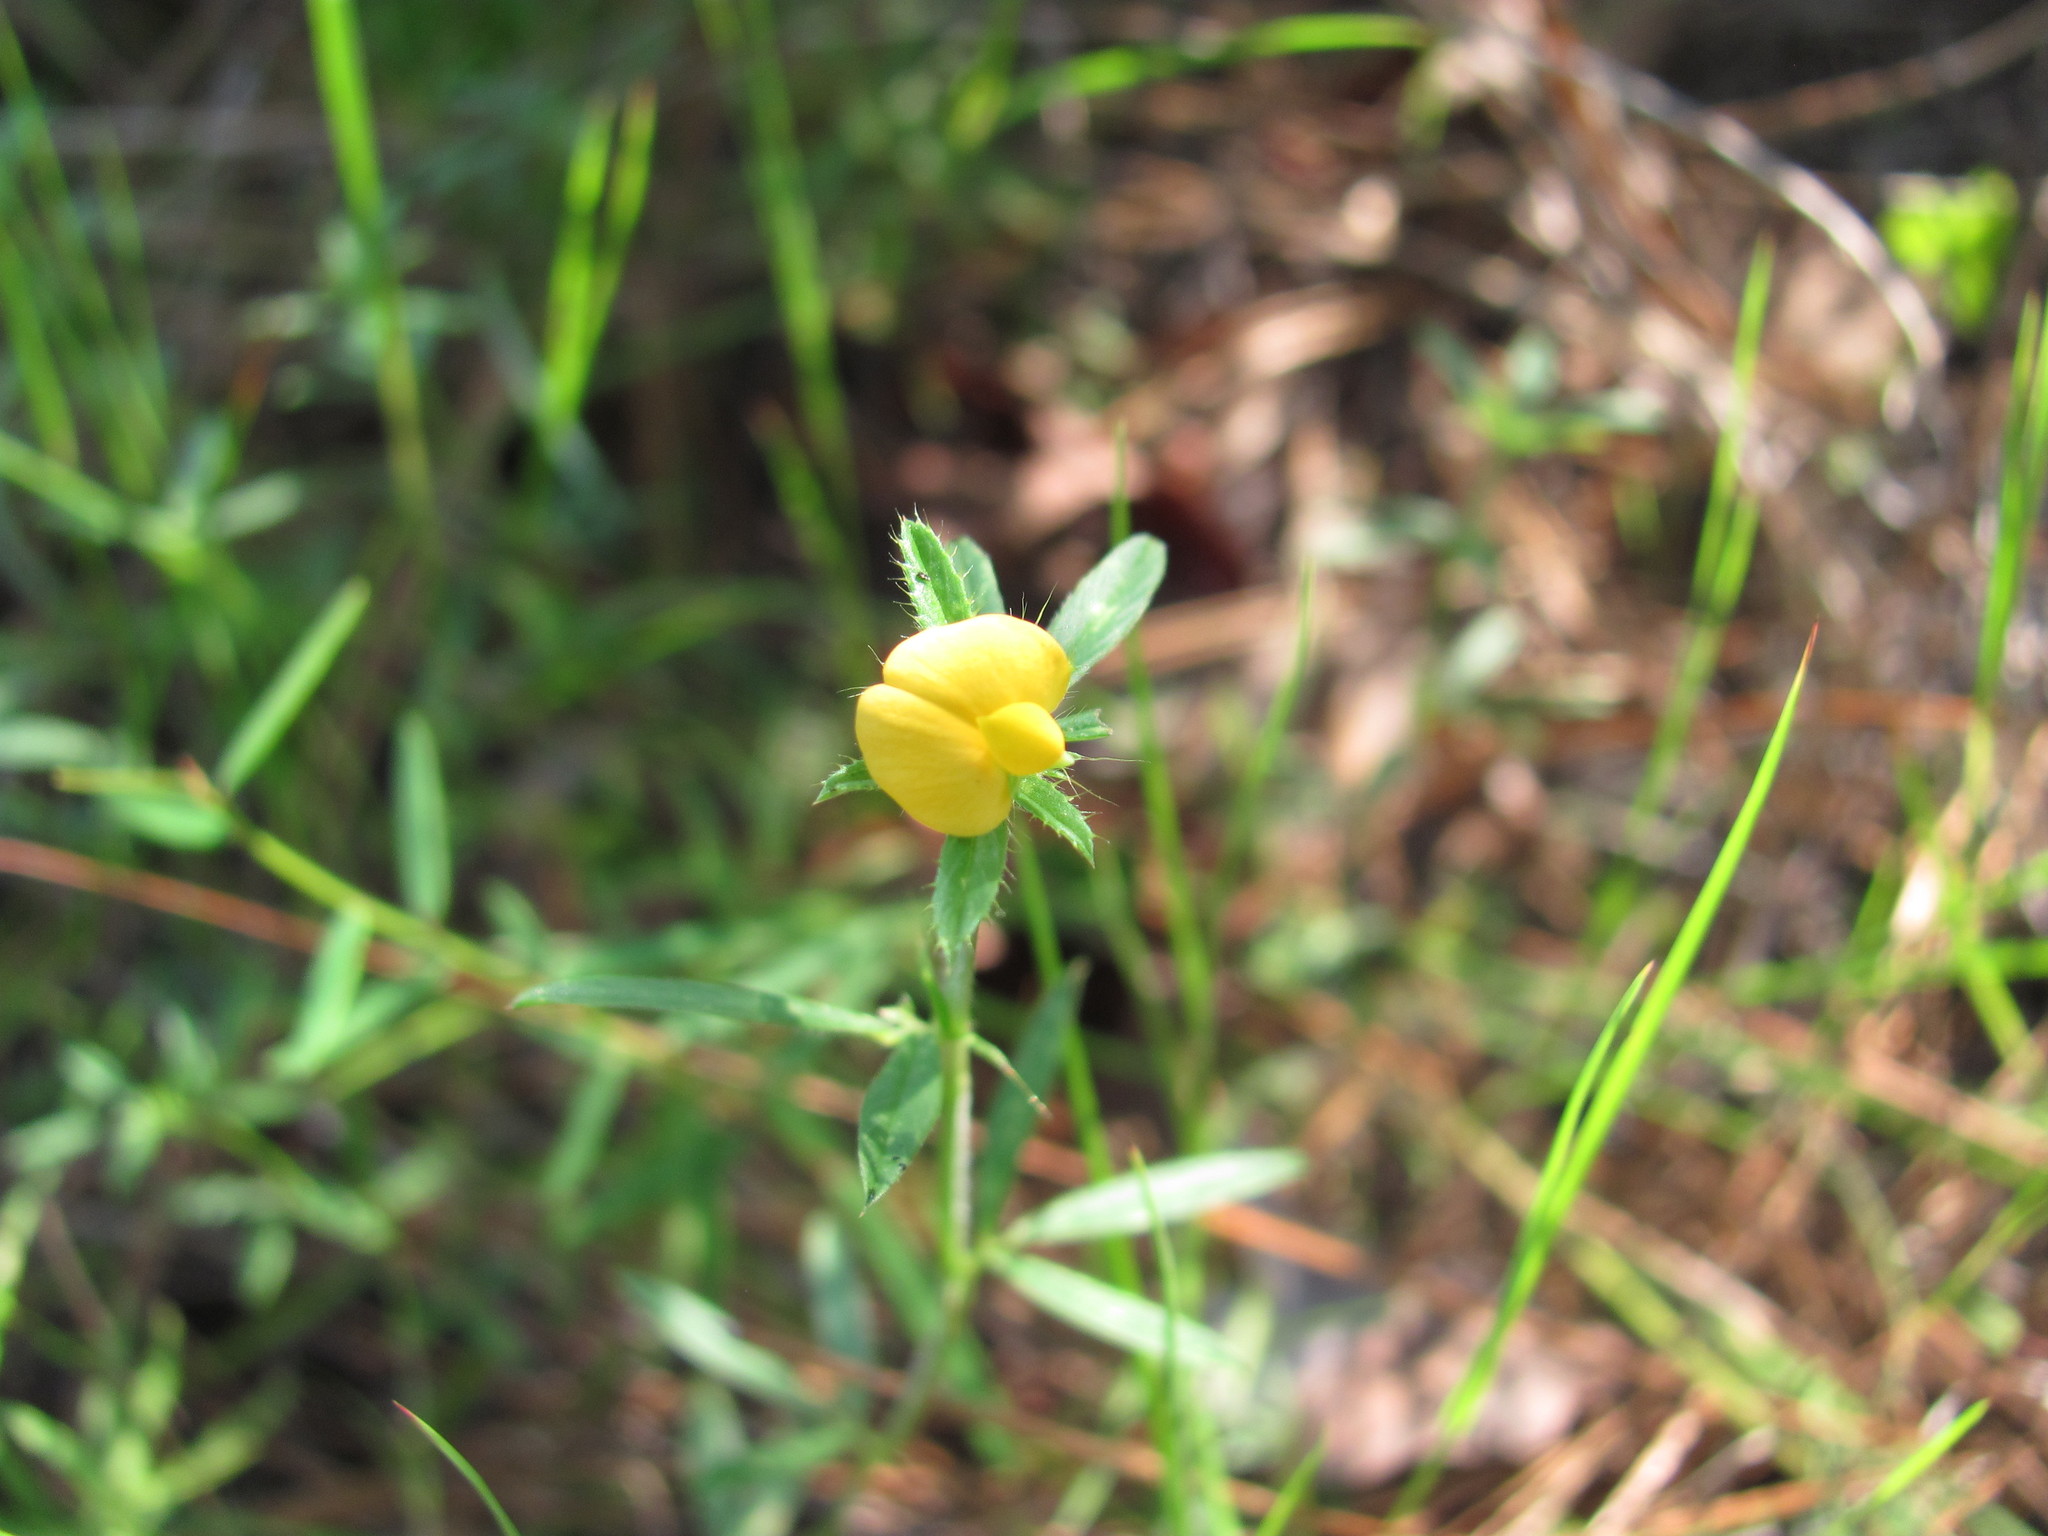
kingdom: Plantae
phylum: Tracheophyta
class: Magnoliopsida
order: Fabales
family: Fabaceae
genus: Stylosanthes
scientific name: Stylosanthes biflora
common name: Two-flower pencil-flower
